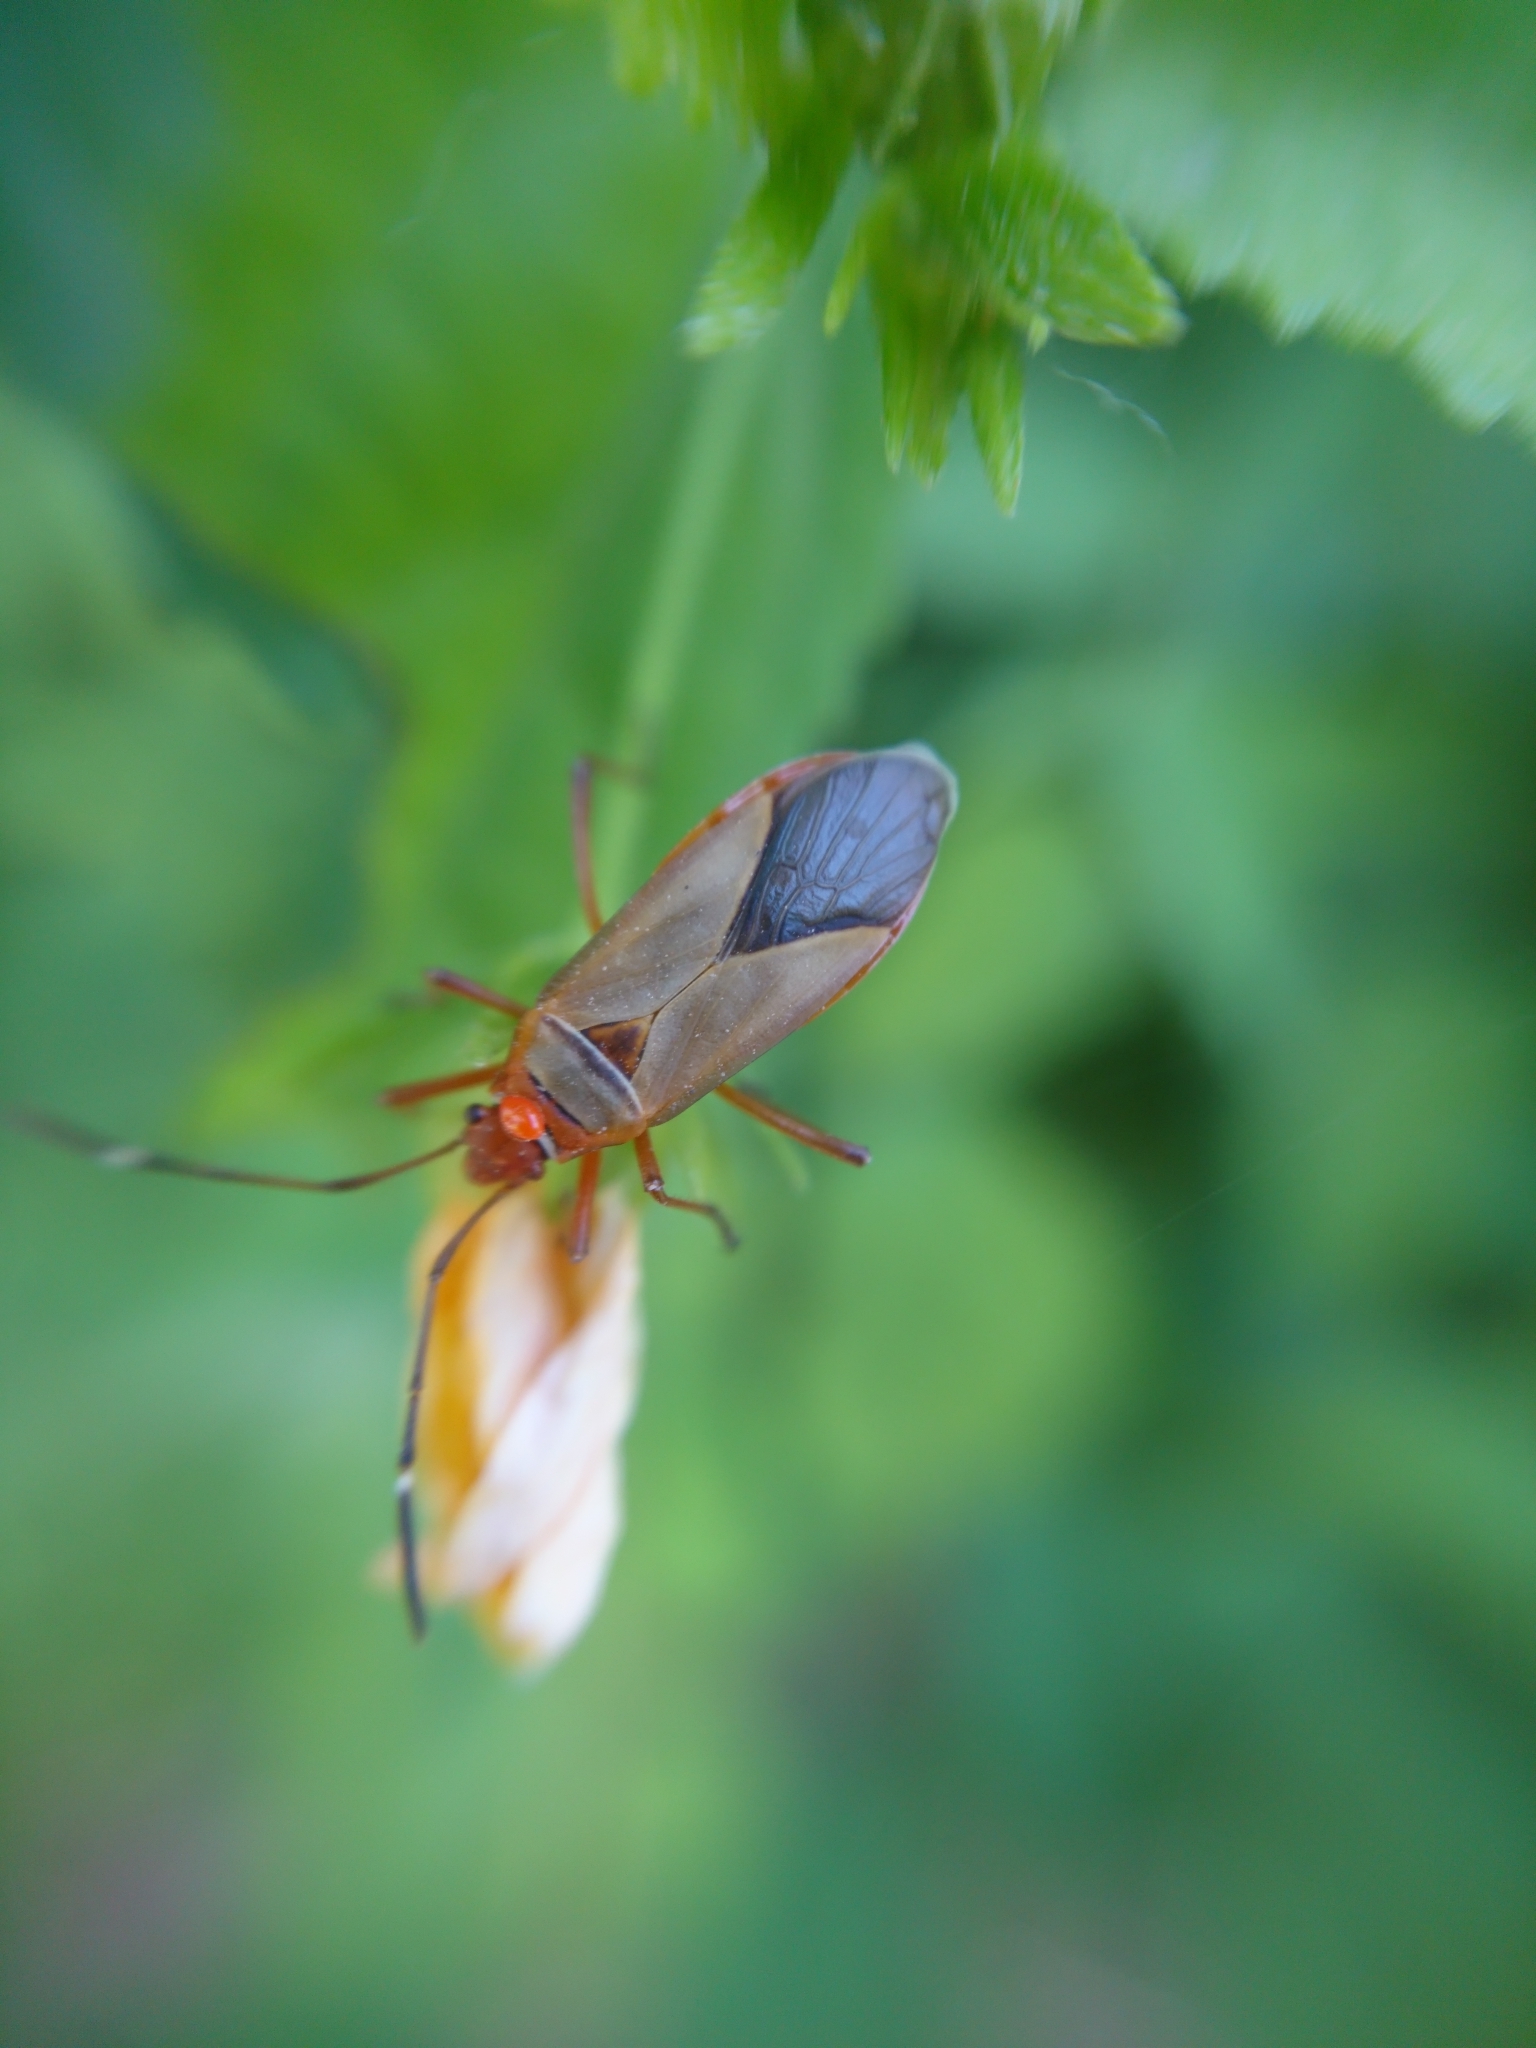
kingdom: Animalia
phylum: Arthropoda
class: Insecta
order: Hemiptera
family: Pyrrhocoridae
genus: Dysdercus
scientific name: Dysdercus
